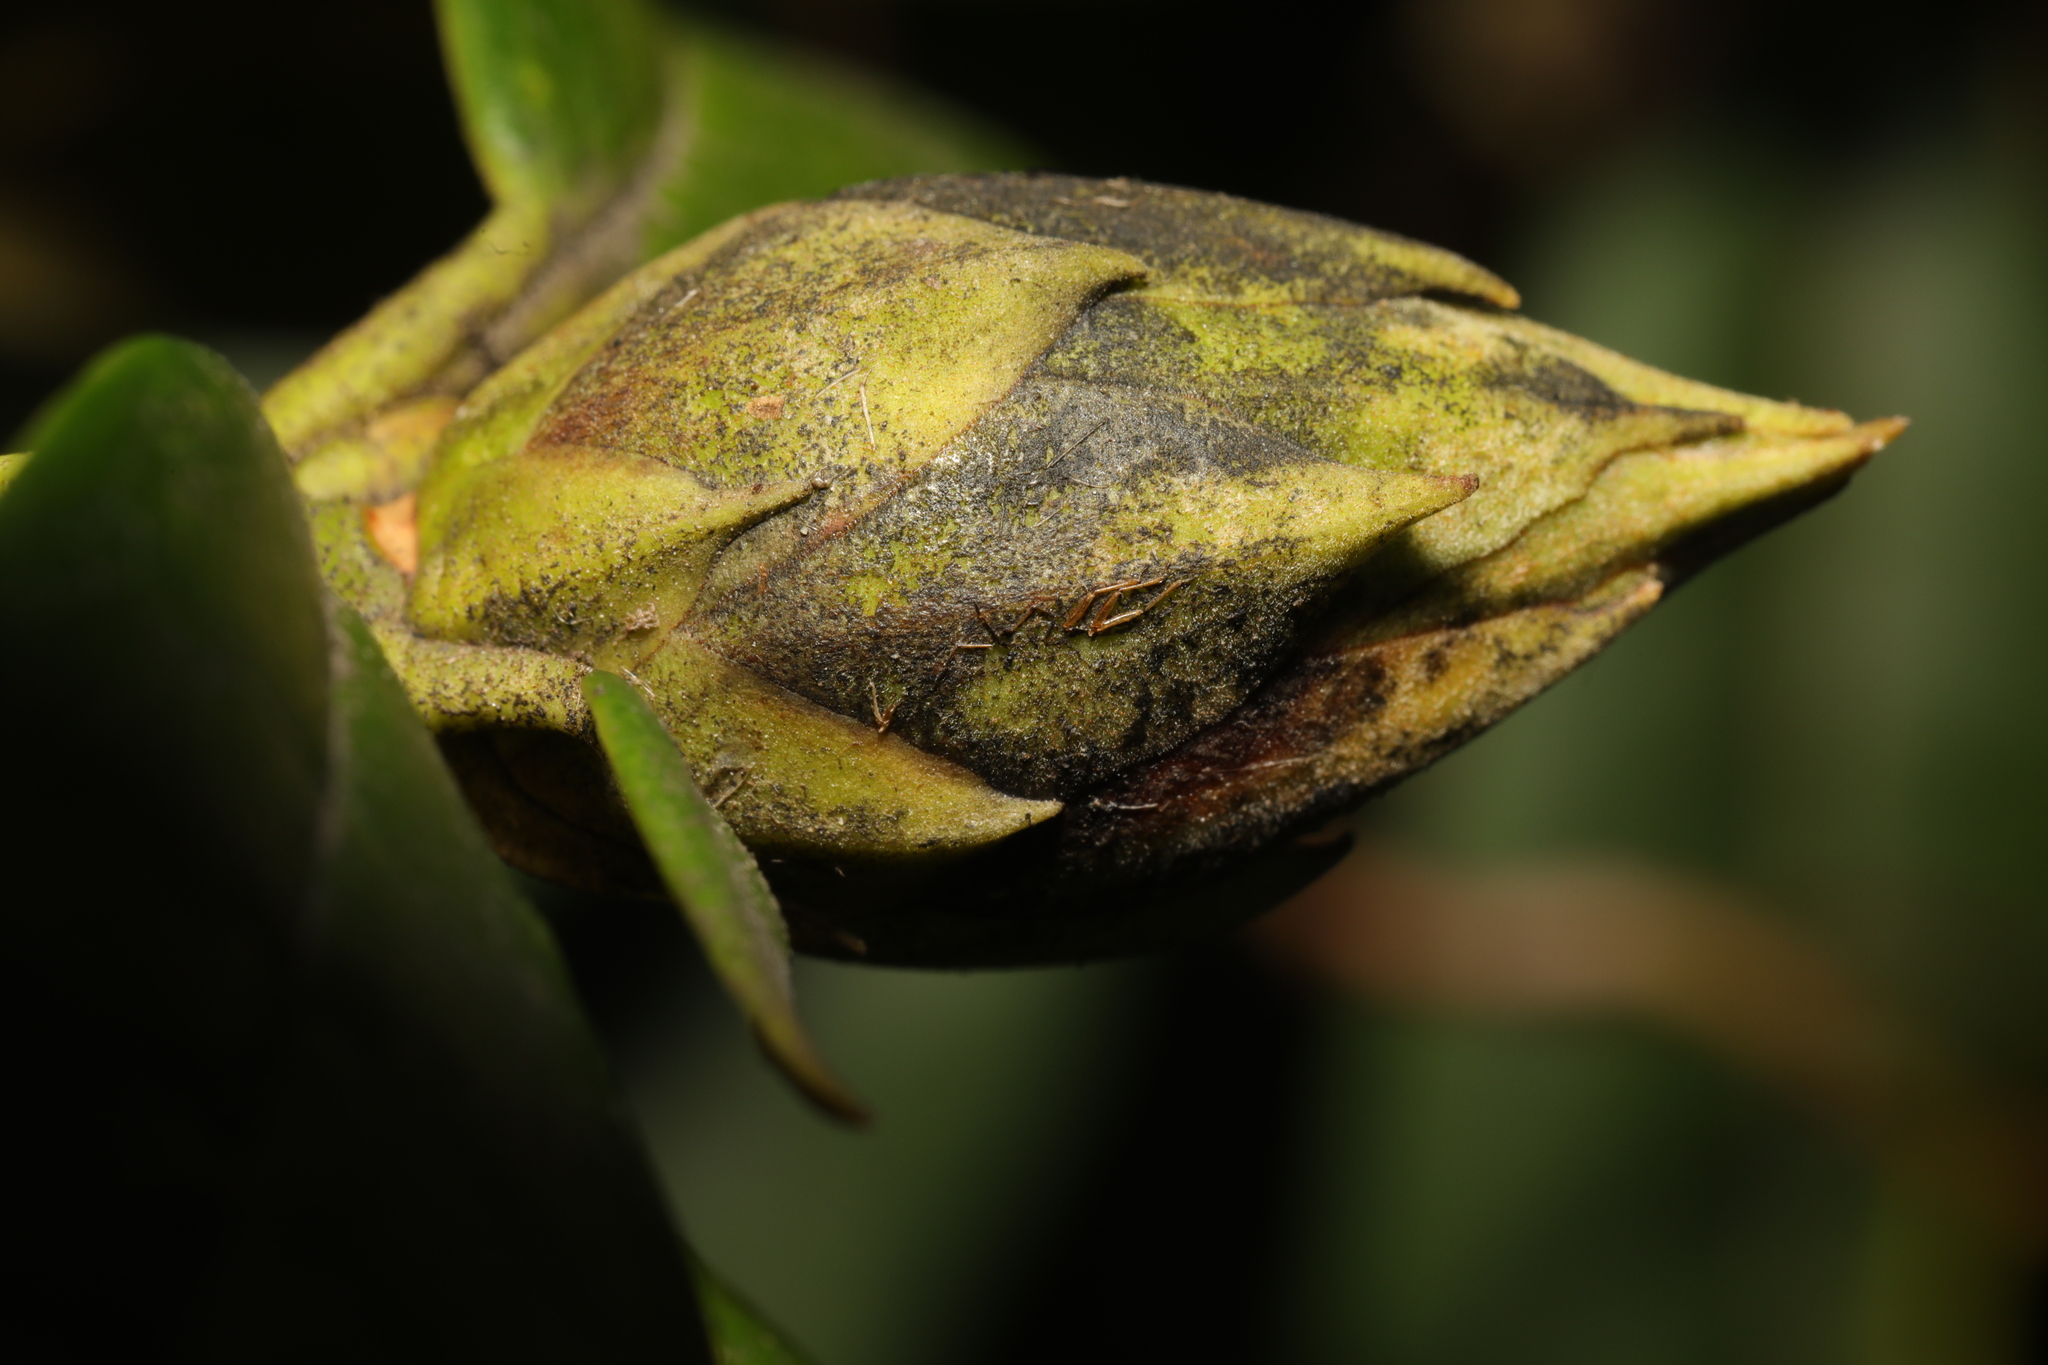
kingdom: Fungi
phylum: Ascomycota
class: Dothideomycetes
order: Pleosporales
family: Melanommataceae
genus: Seifertia
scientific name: Seifertia azaleae
